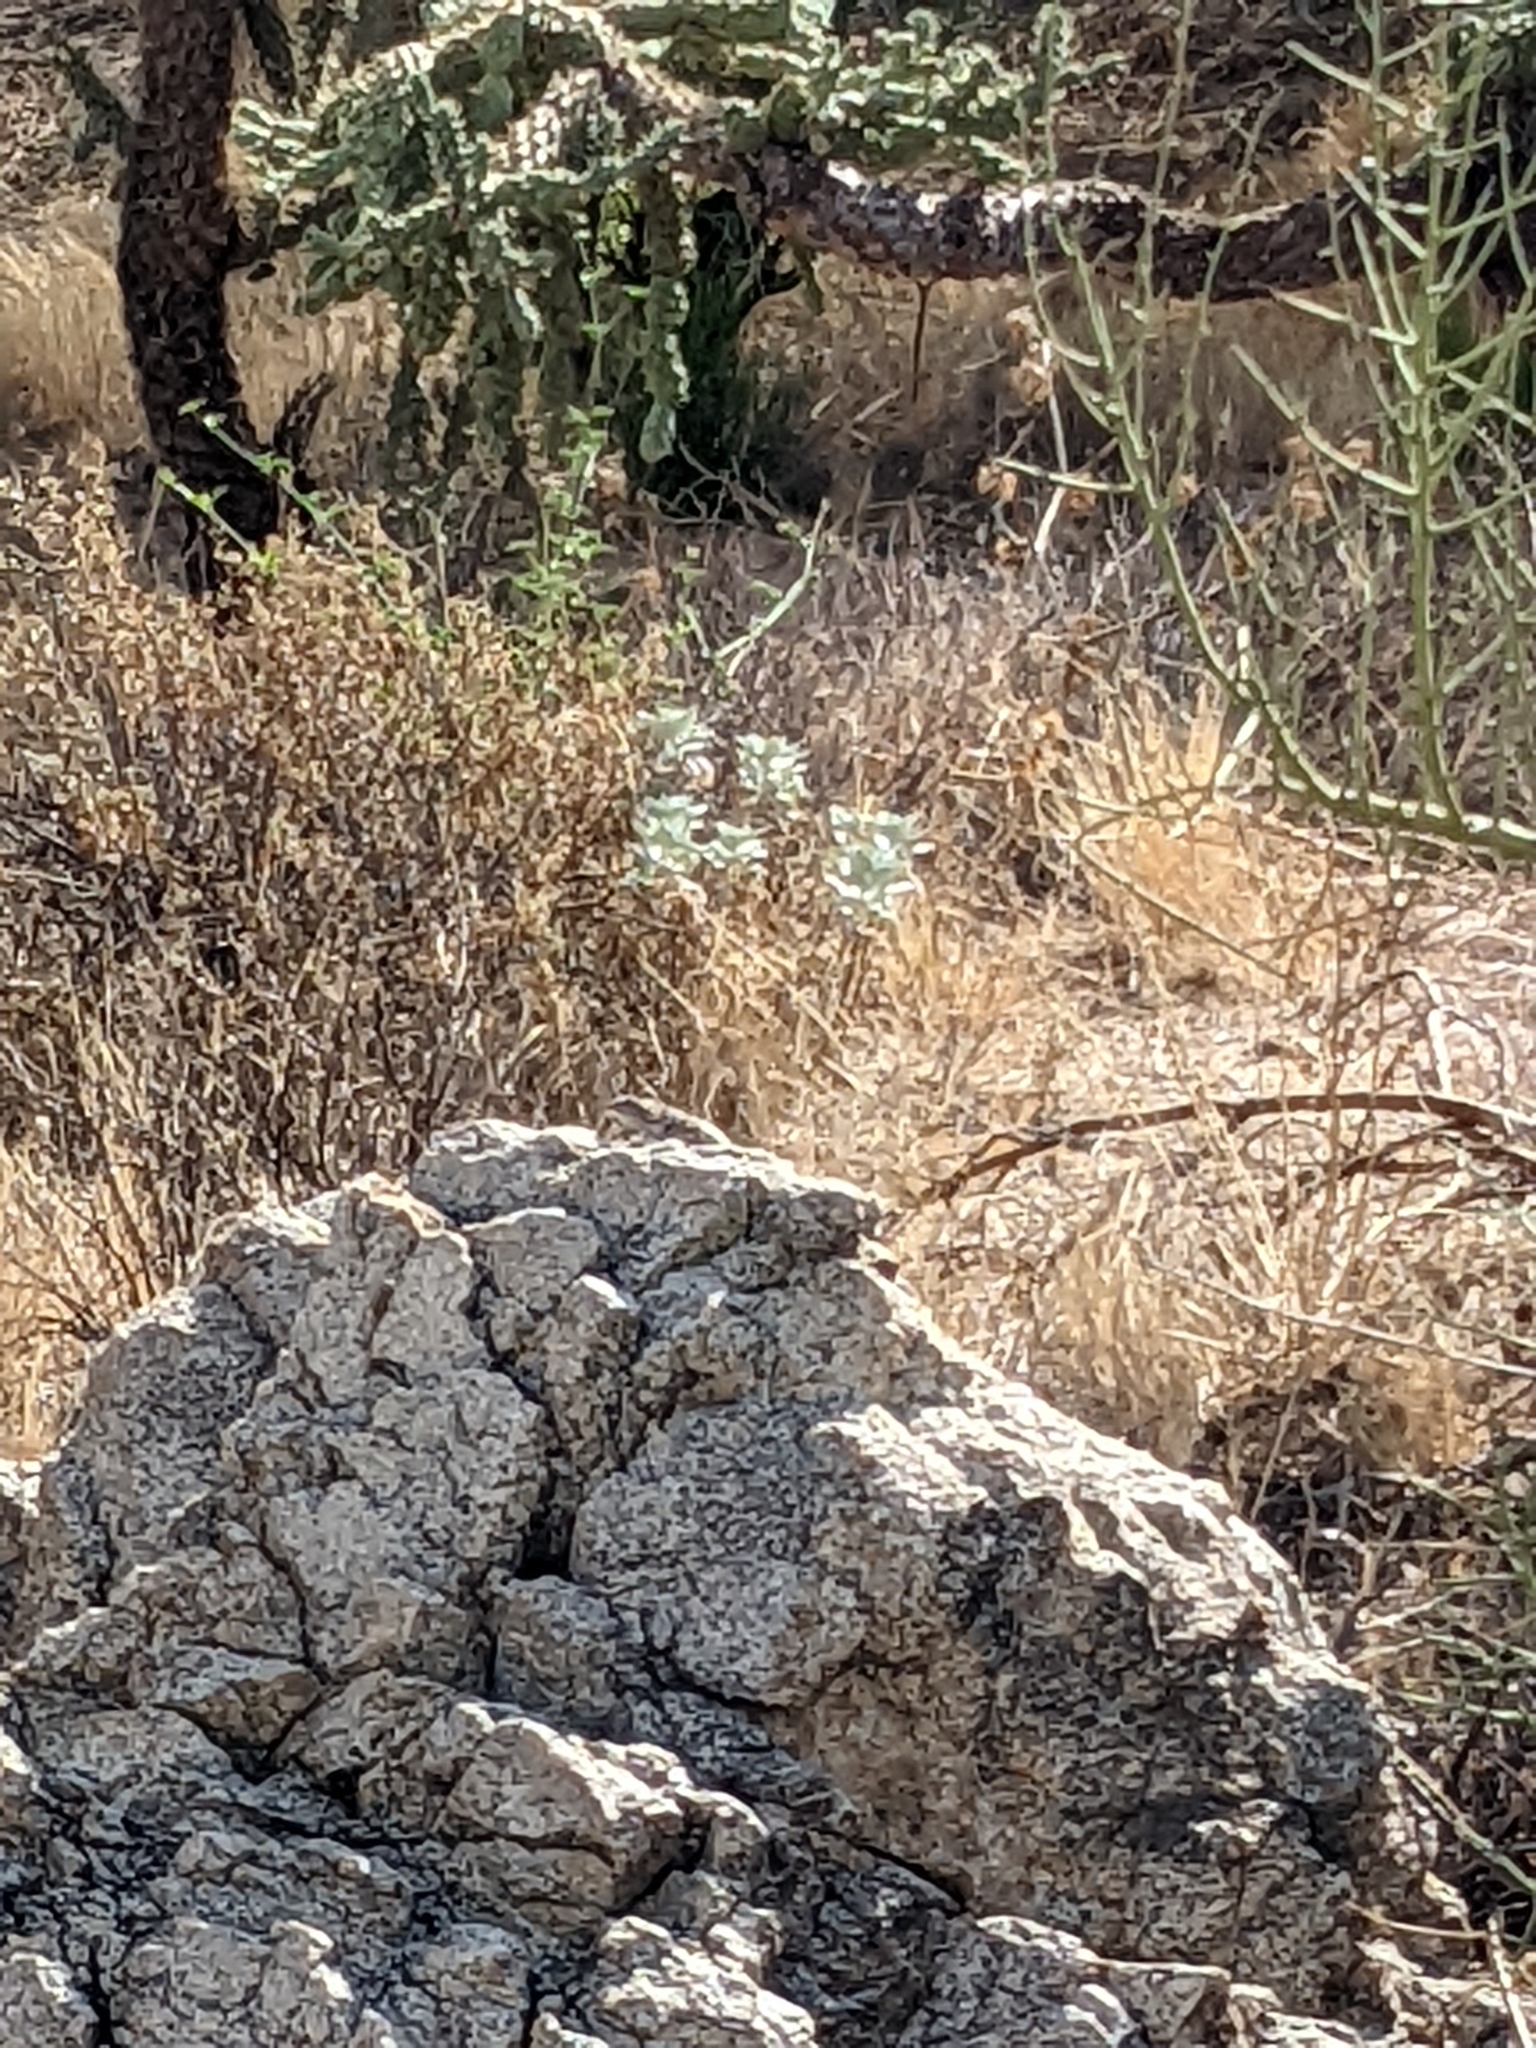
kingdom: Animalia
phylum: Chordata
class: Squamata
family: Phrynosomatidae
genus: Sceloporus
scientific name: Sceloporus
